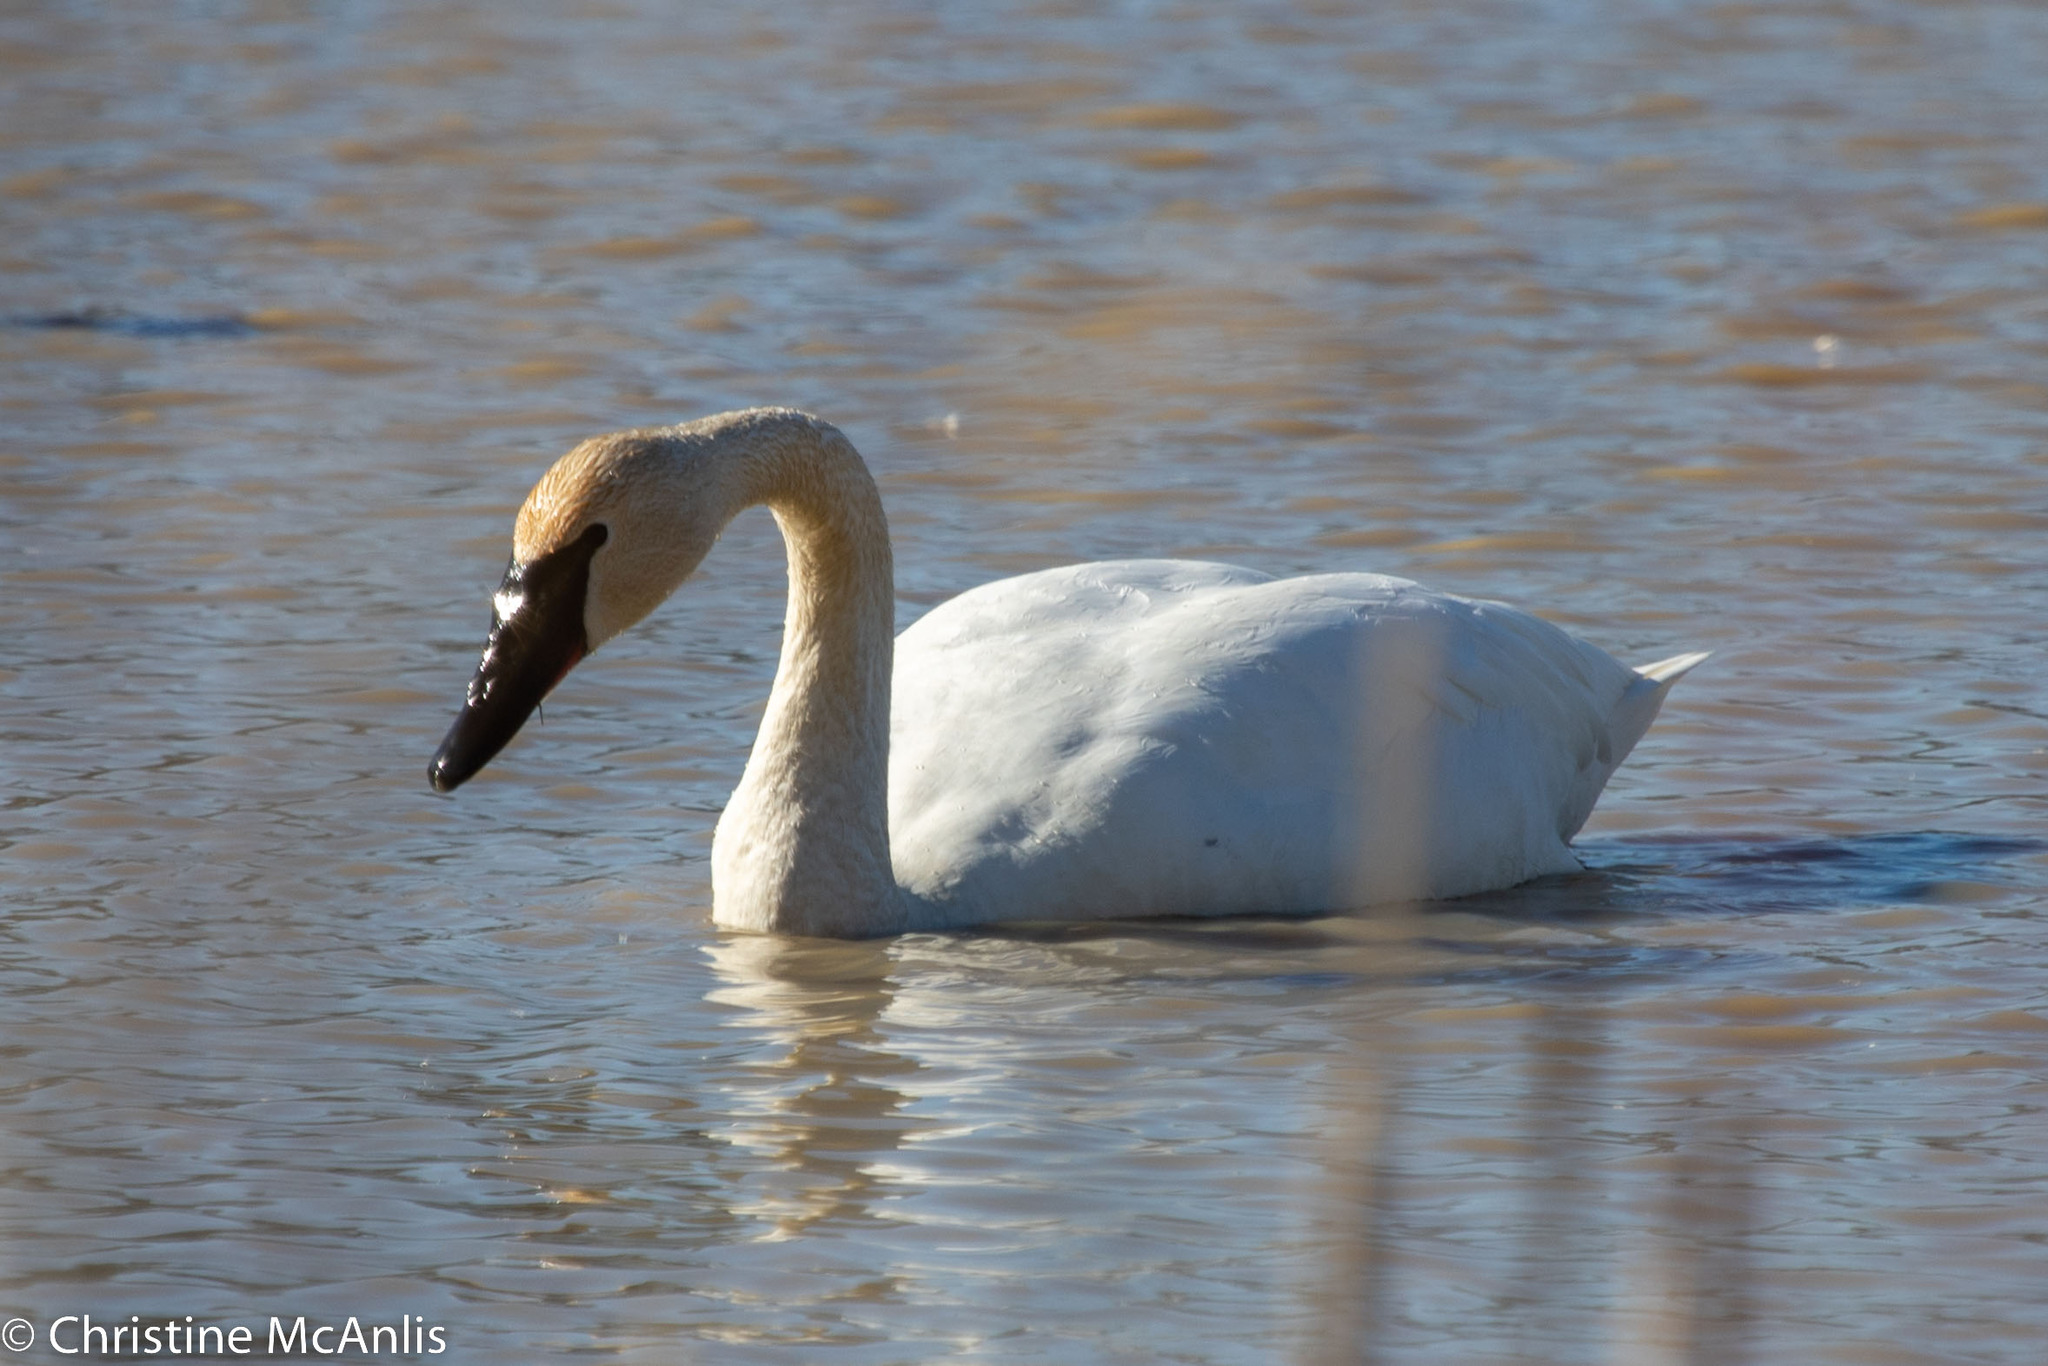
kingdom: Animalia
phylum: Chordata
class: Aves
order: Anseriformes
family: Anatidae
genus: Cygnus
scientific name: Cygnus buccinator
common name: Trumpeter swan
